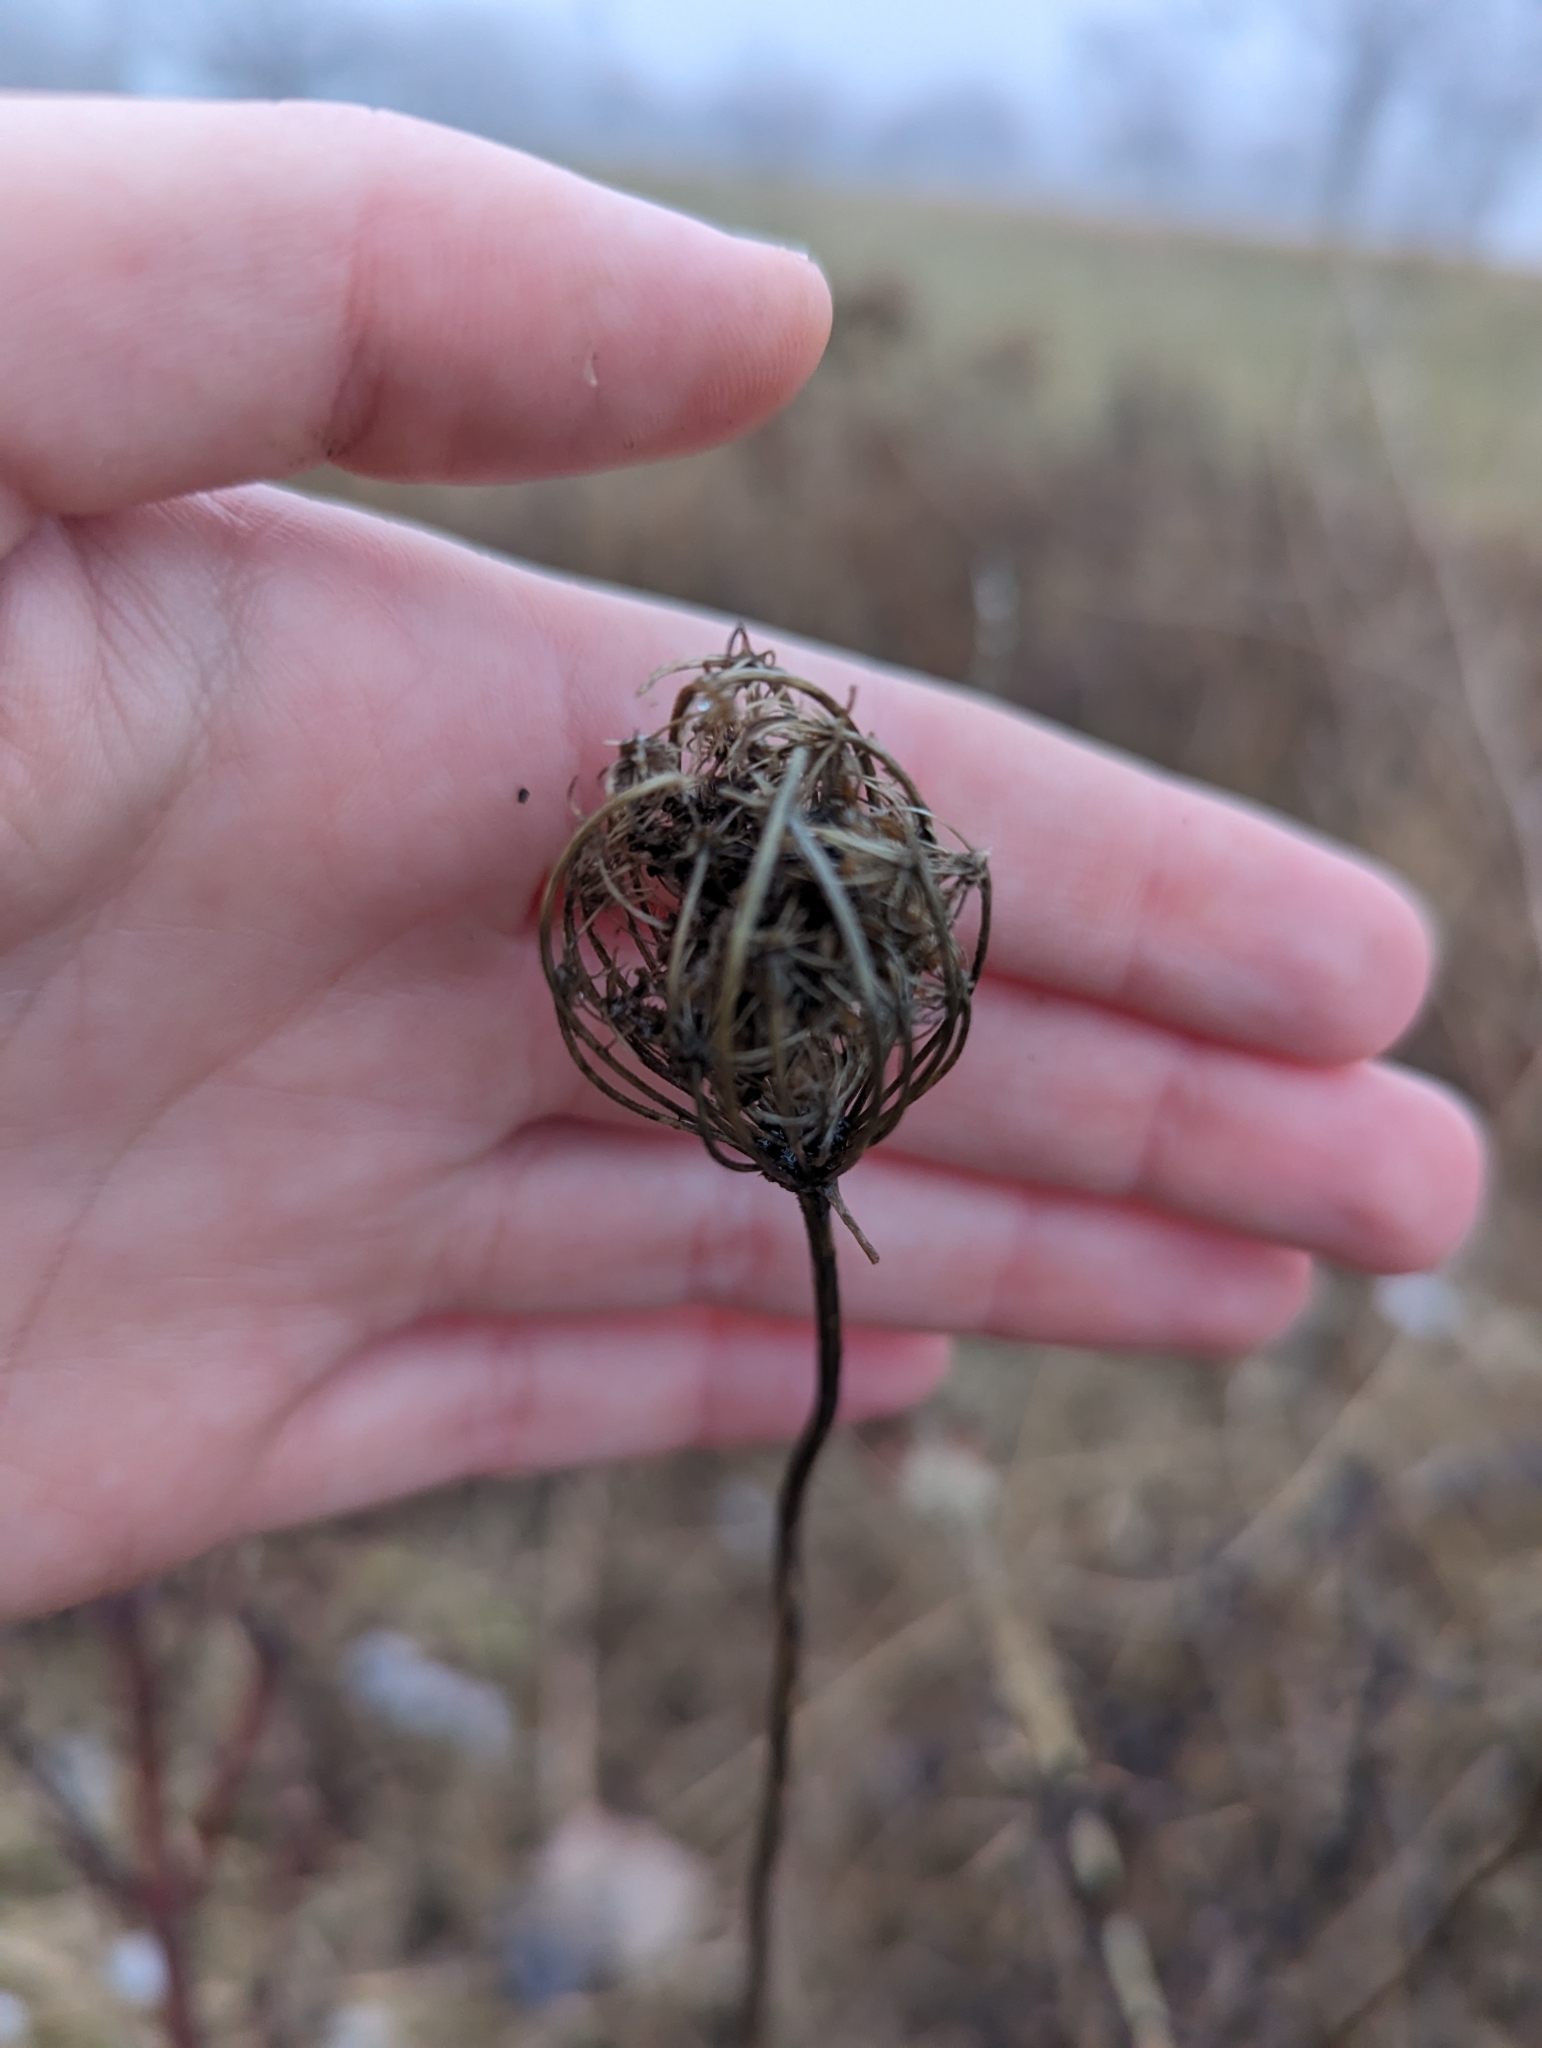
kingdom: Plantae
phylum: Tracheophyta
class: Magnoliopsida
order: Apiales
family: Apiaceae
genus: Daucus
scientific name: Daucus carota
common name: Wild carrot
